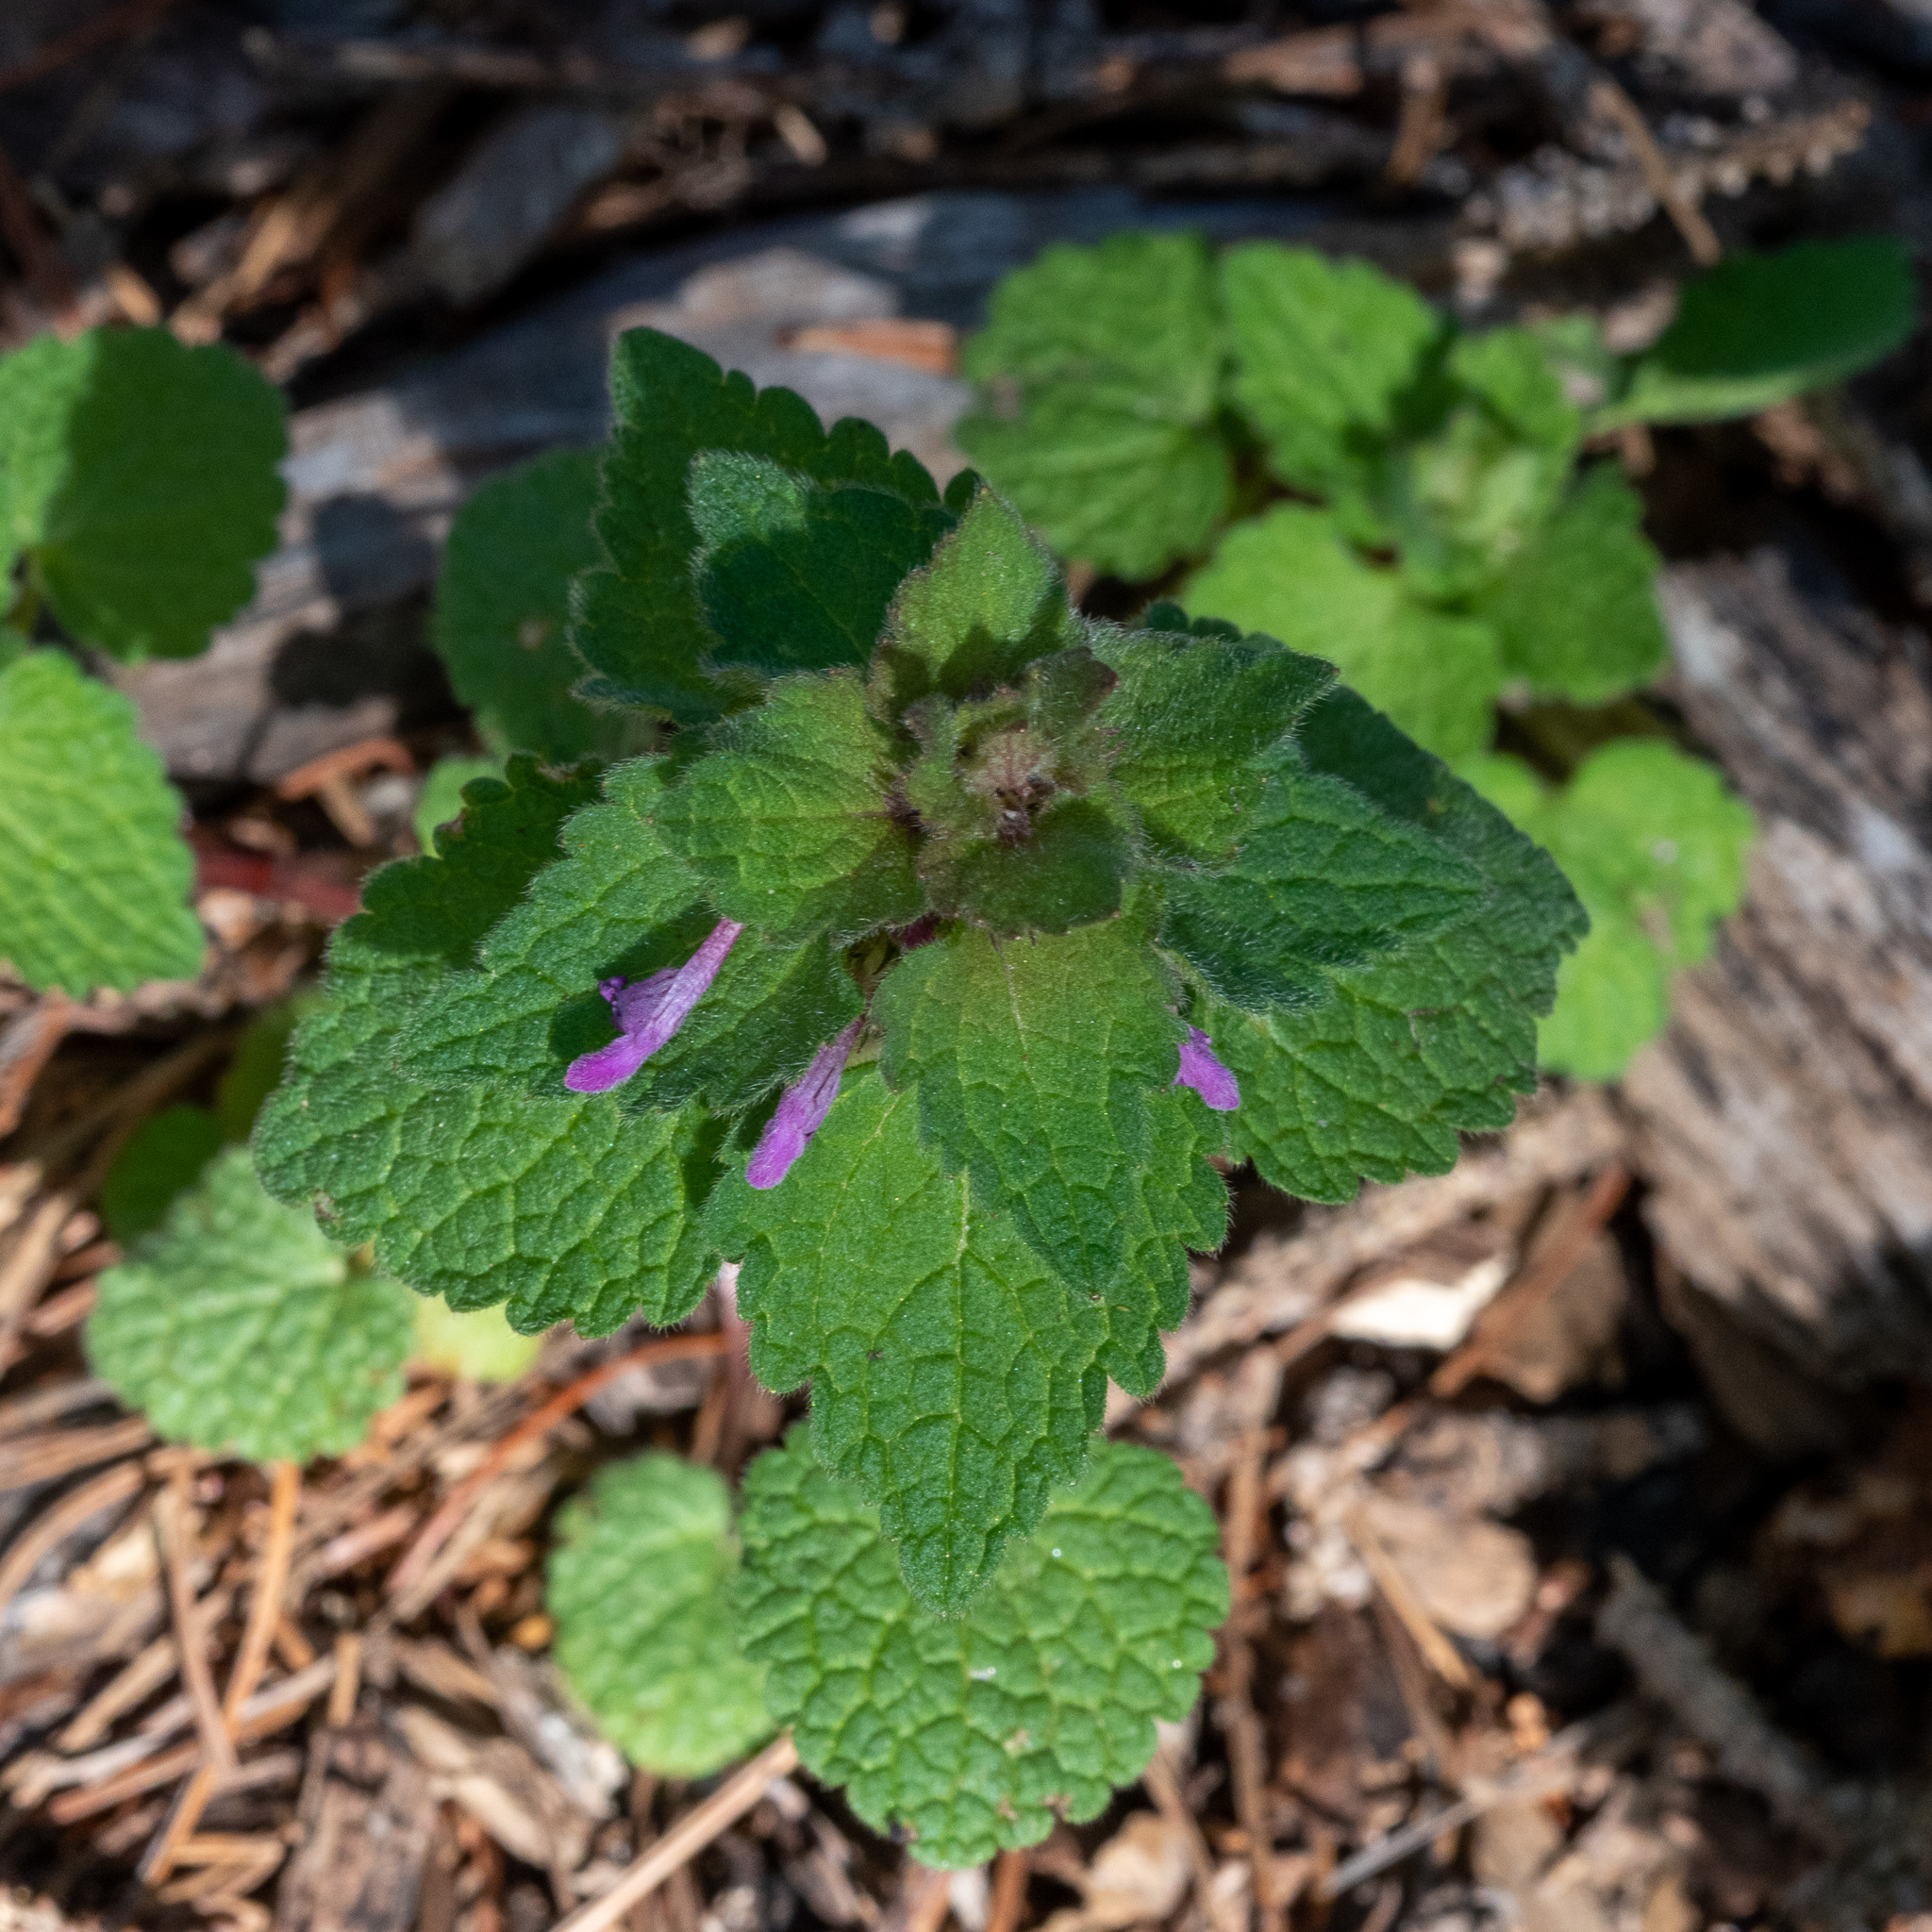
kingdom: Plantae
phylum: Tracheophyta
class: Magnoliopsida
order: Lamiales
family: Lamiaceae
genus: Lamium
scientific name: Lamium purpureum
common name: Red dead-nettle
